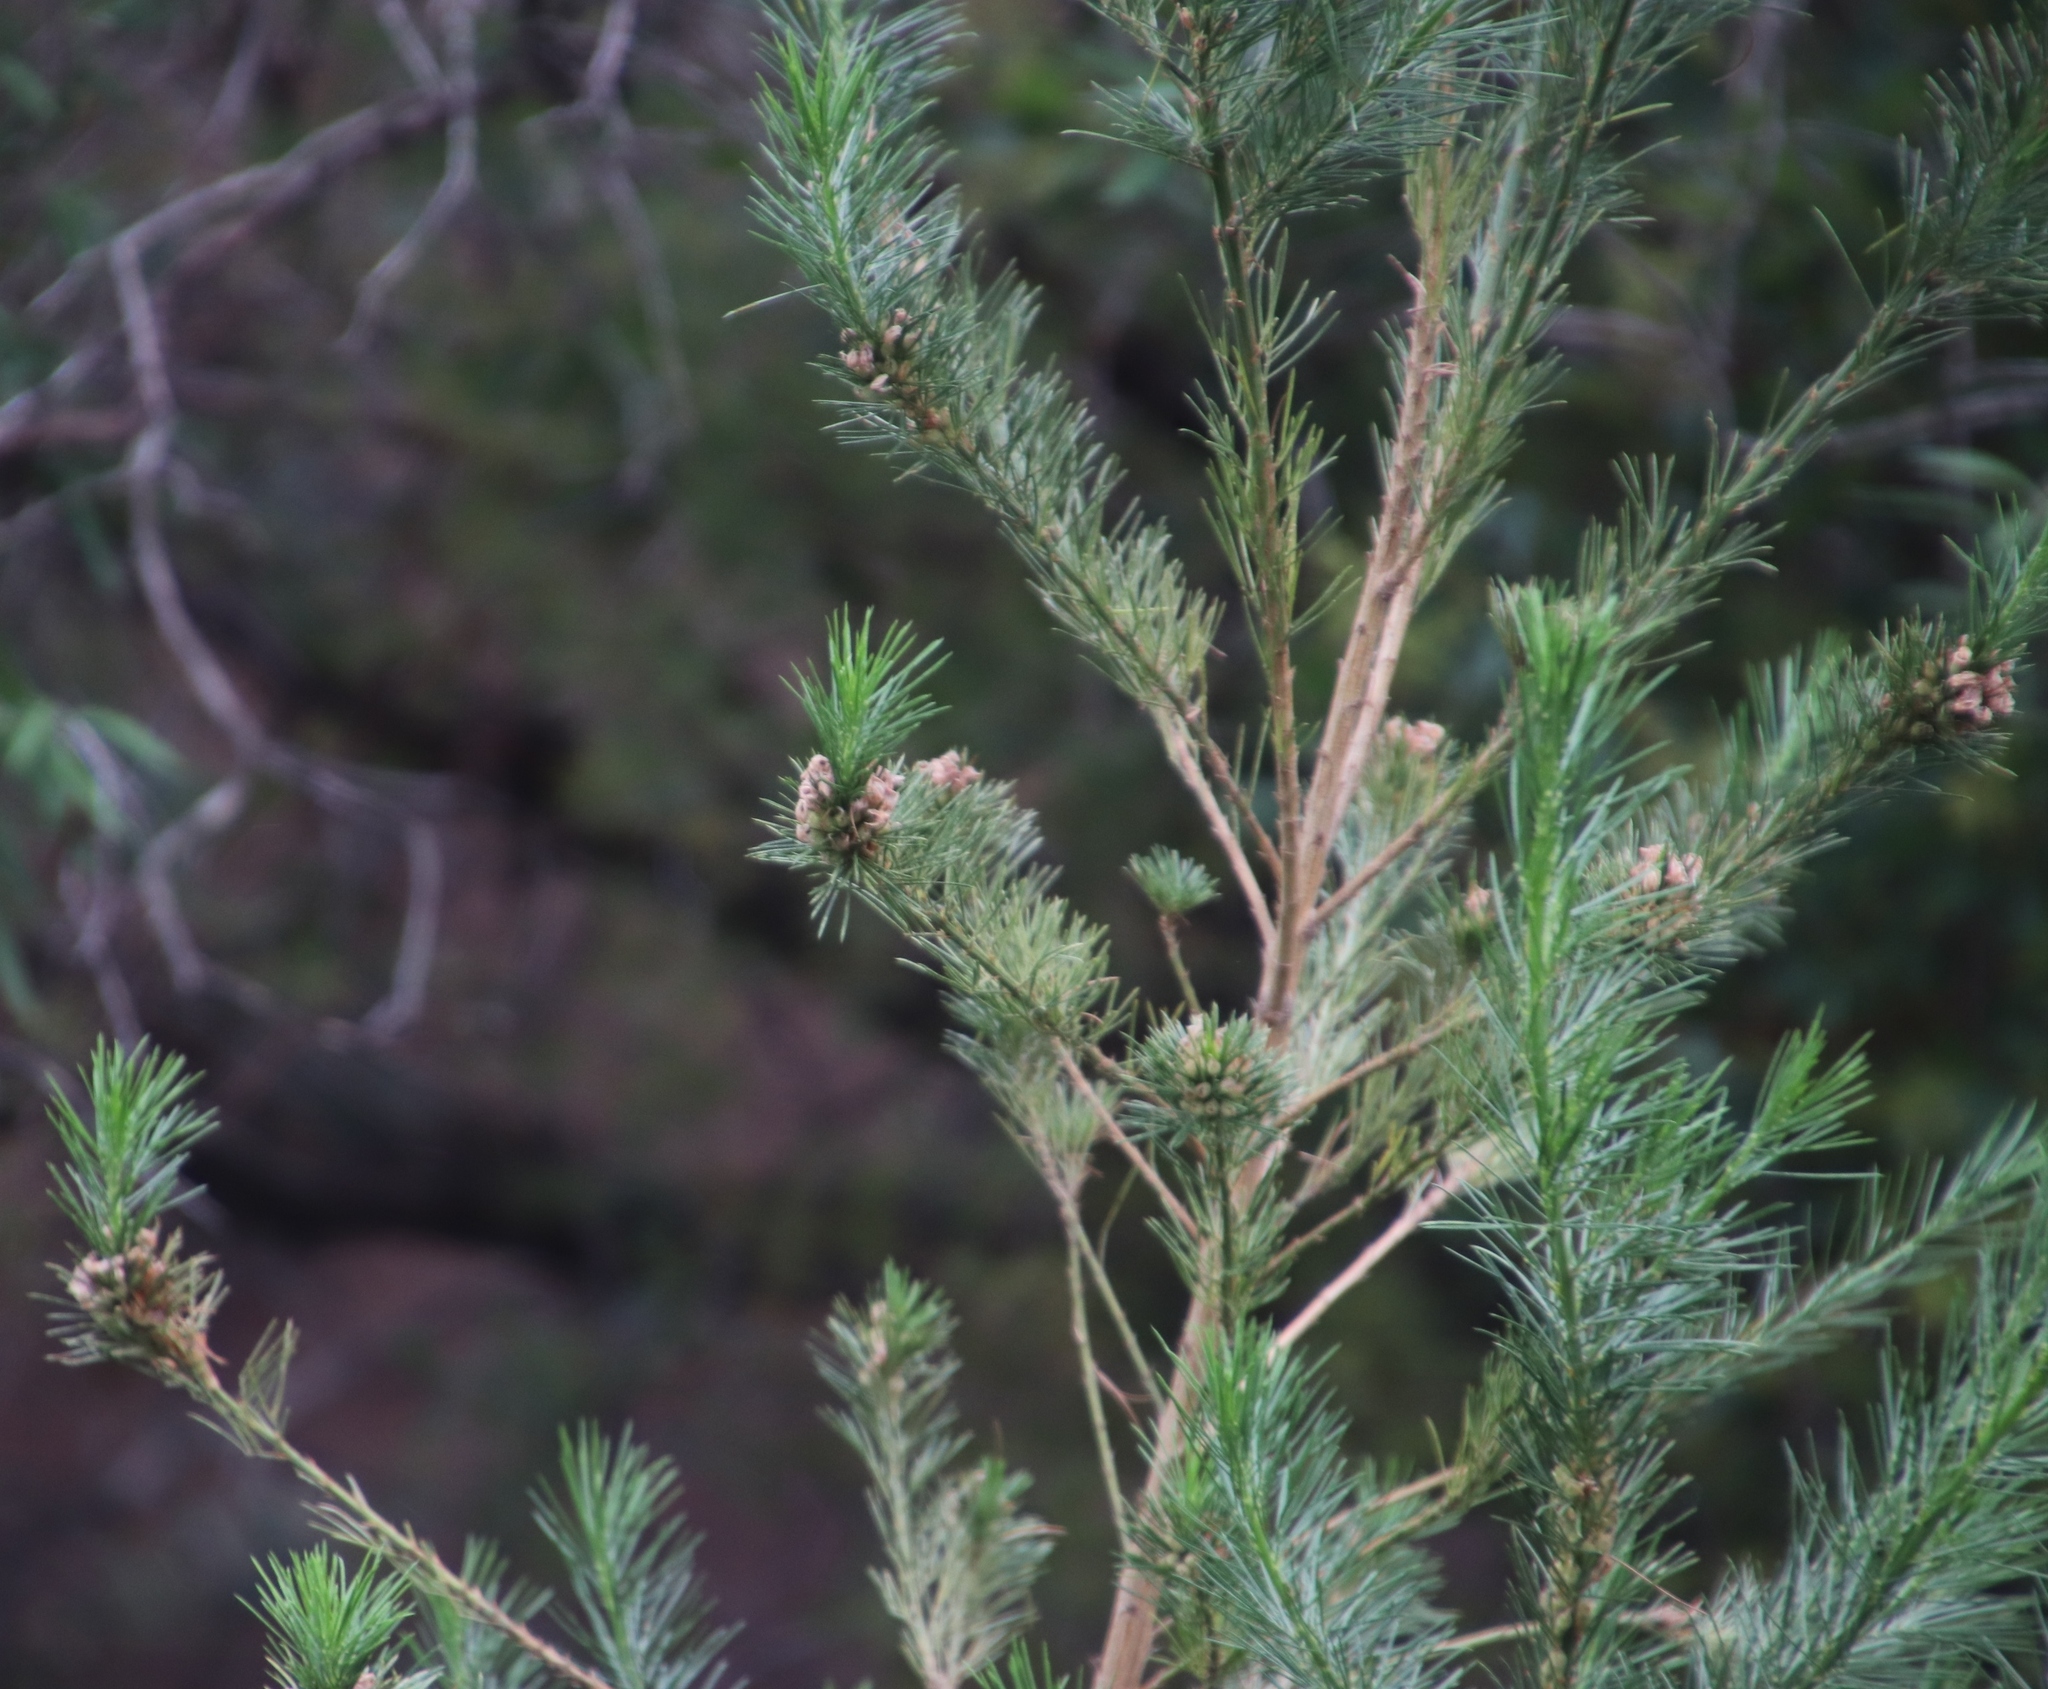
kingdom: Plantae
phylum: Tracheophyta
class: Magnoliopsida
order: Fabales
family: Fabaceae
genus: Psoralea
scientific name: Psoralea ivumba
